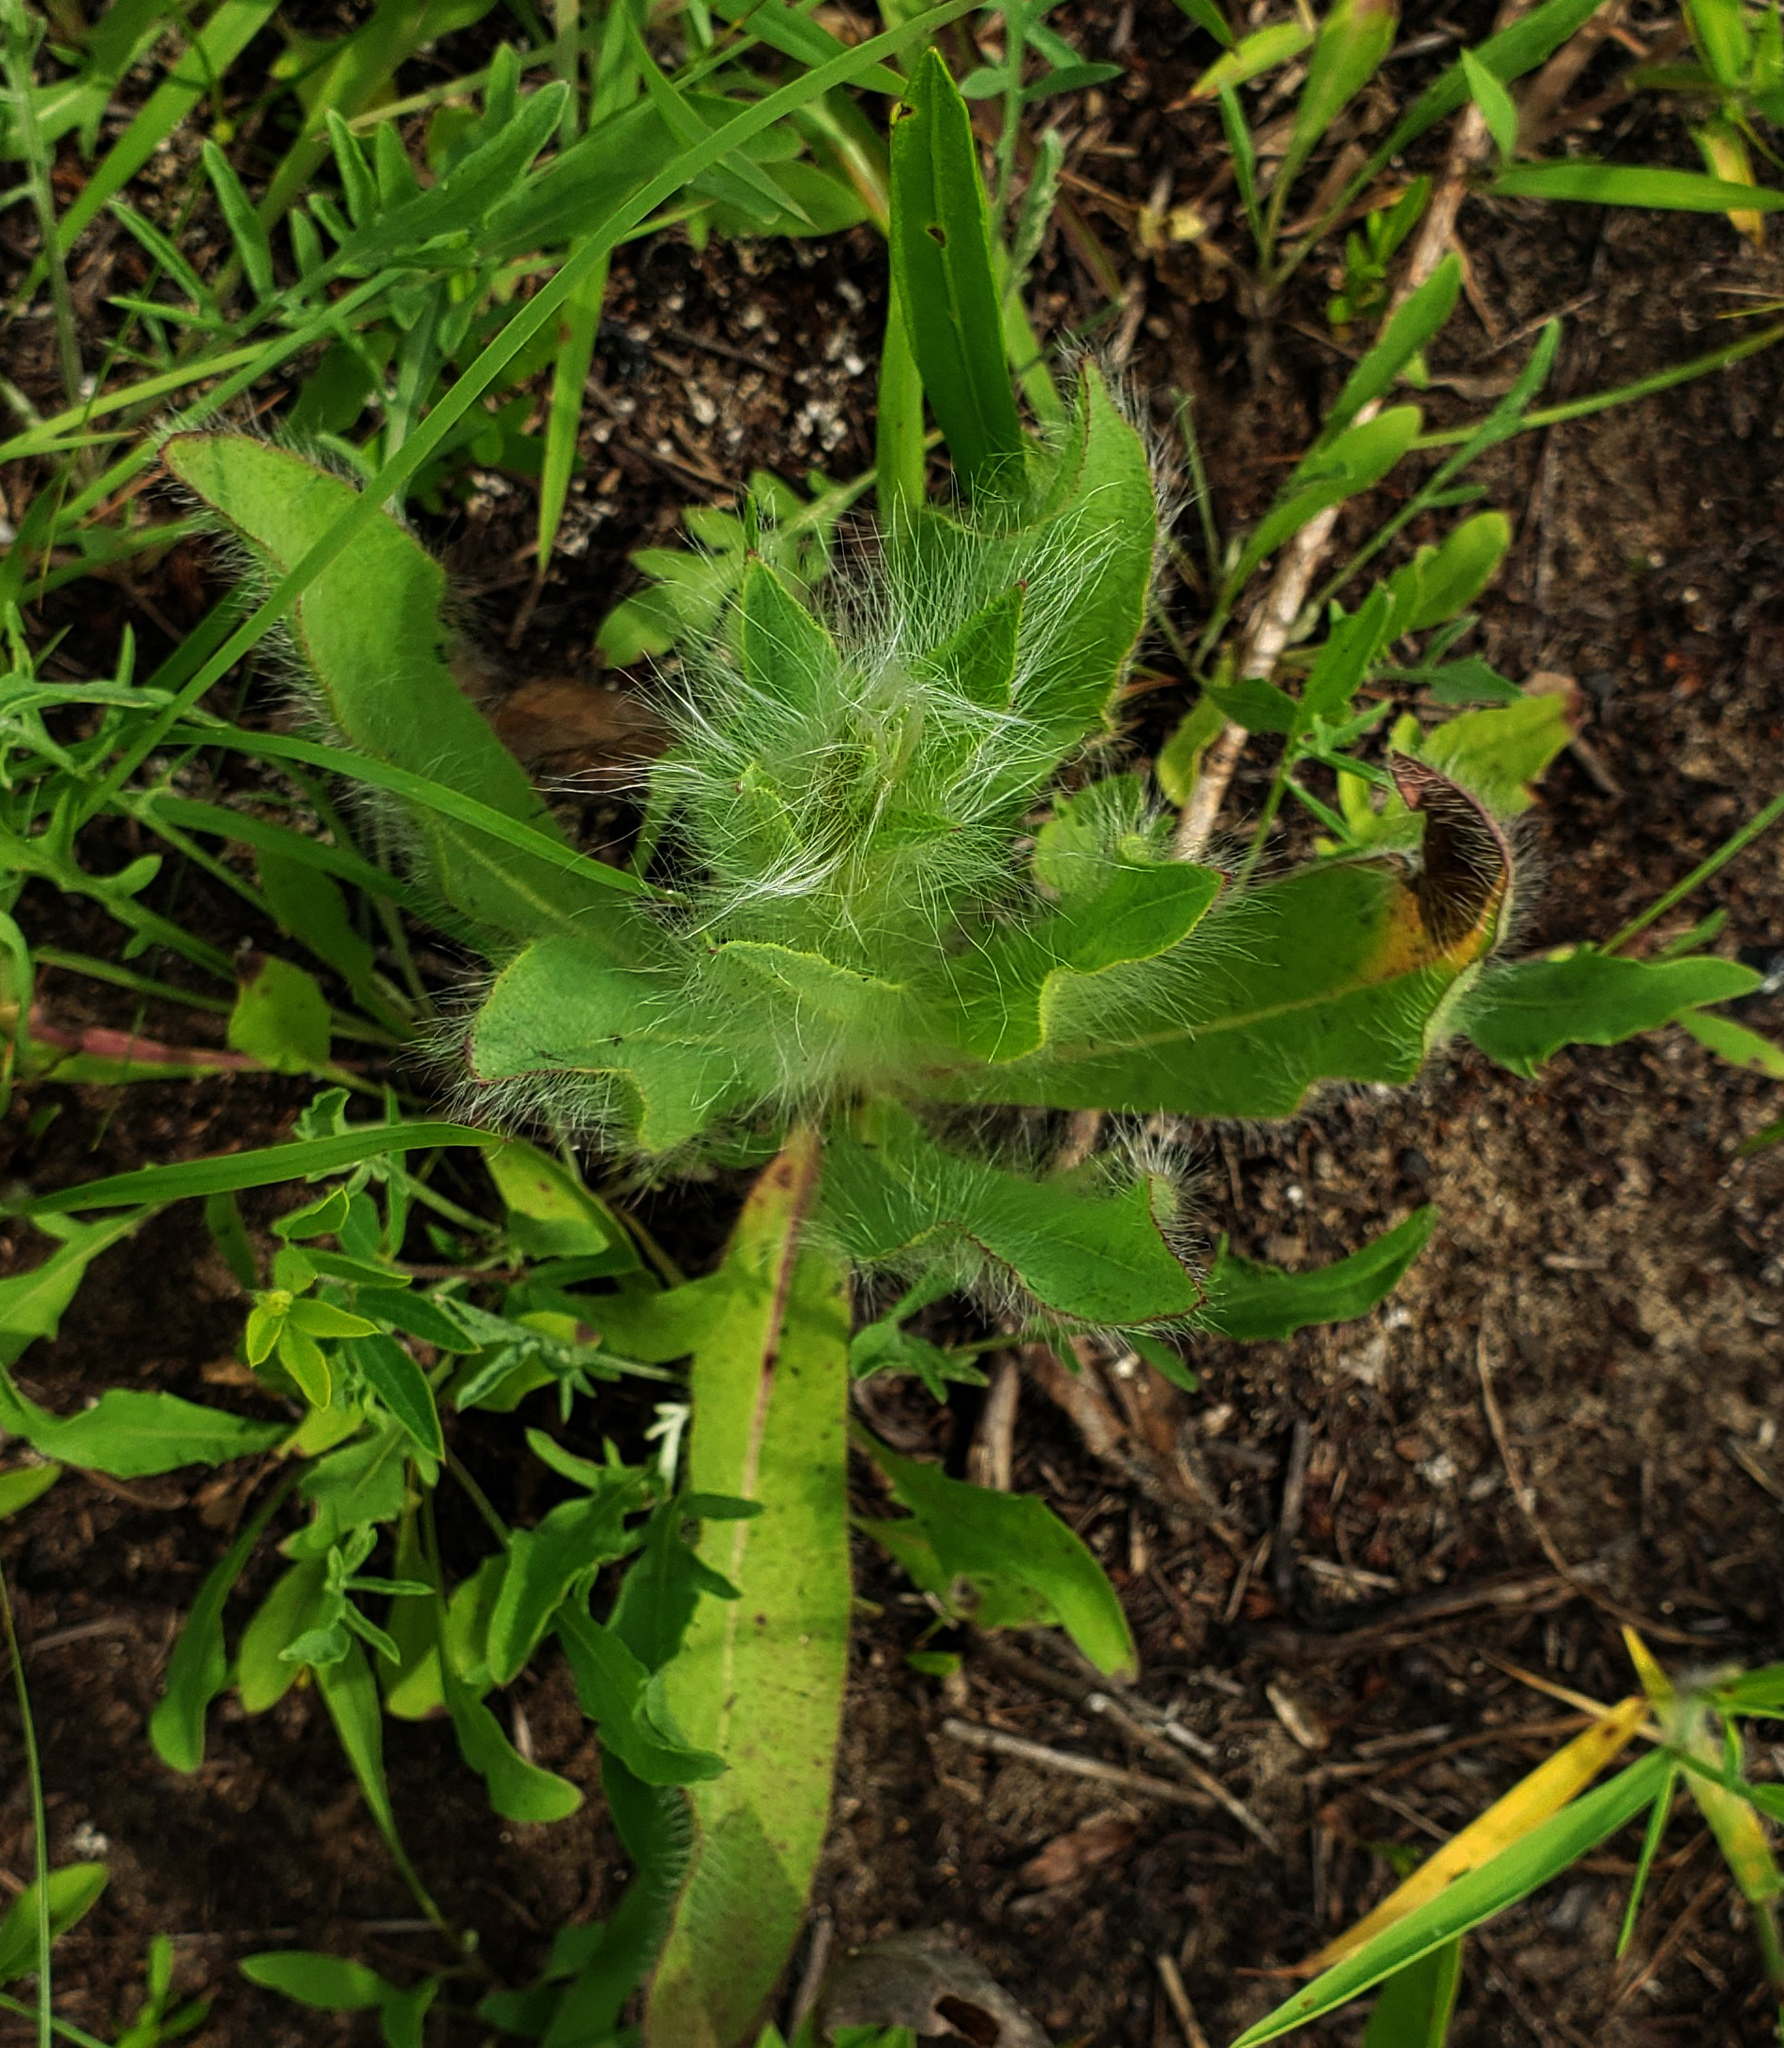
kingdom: Plantae
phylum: Tracheophyta
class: Magnoliopsida
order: Asterales
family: Asteraceae
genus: Hieracium
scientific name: Hieracium longipilum
